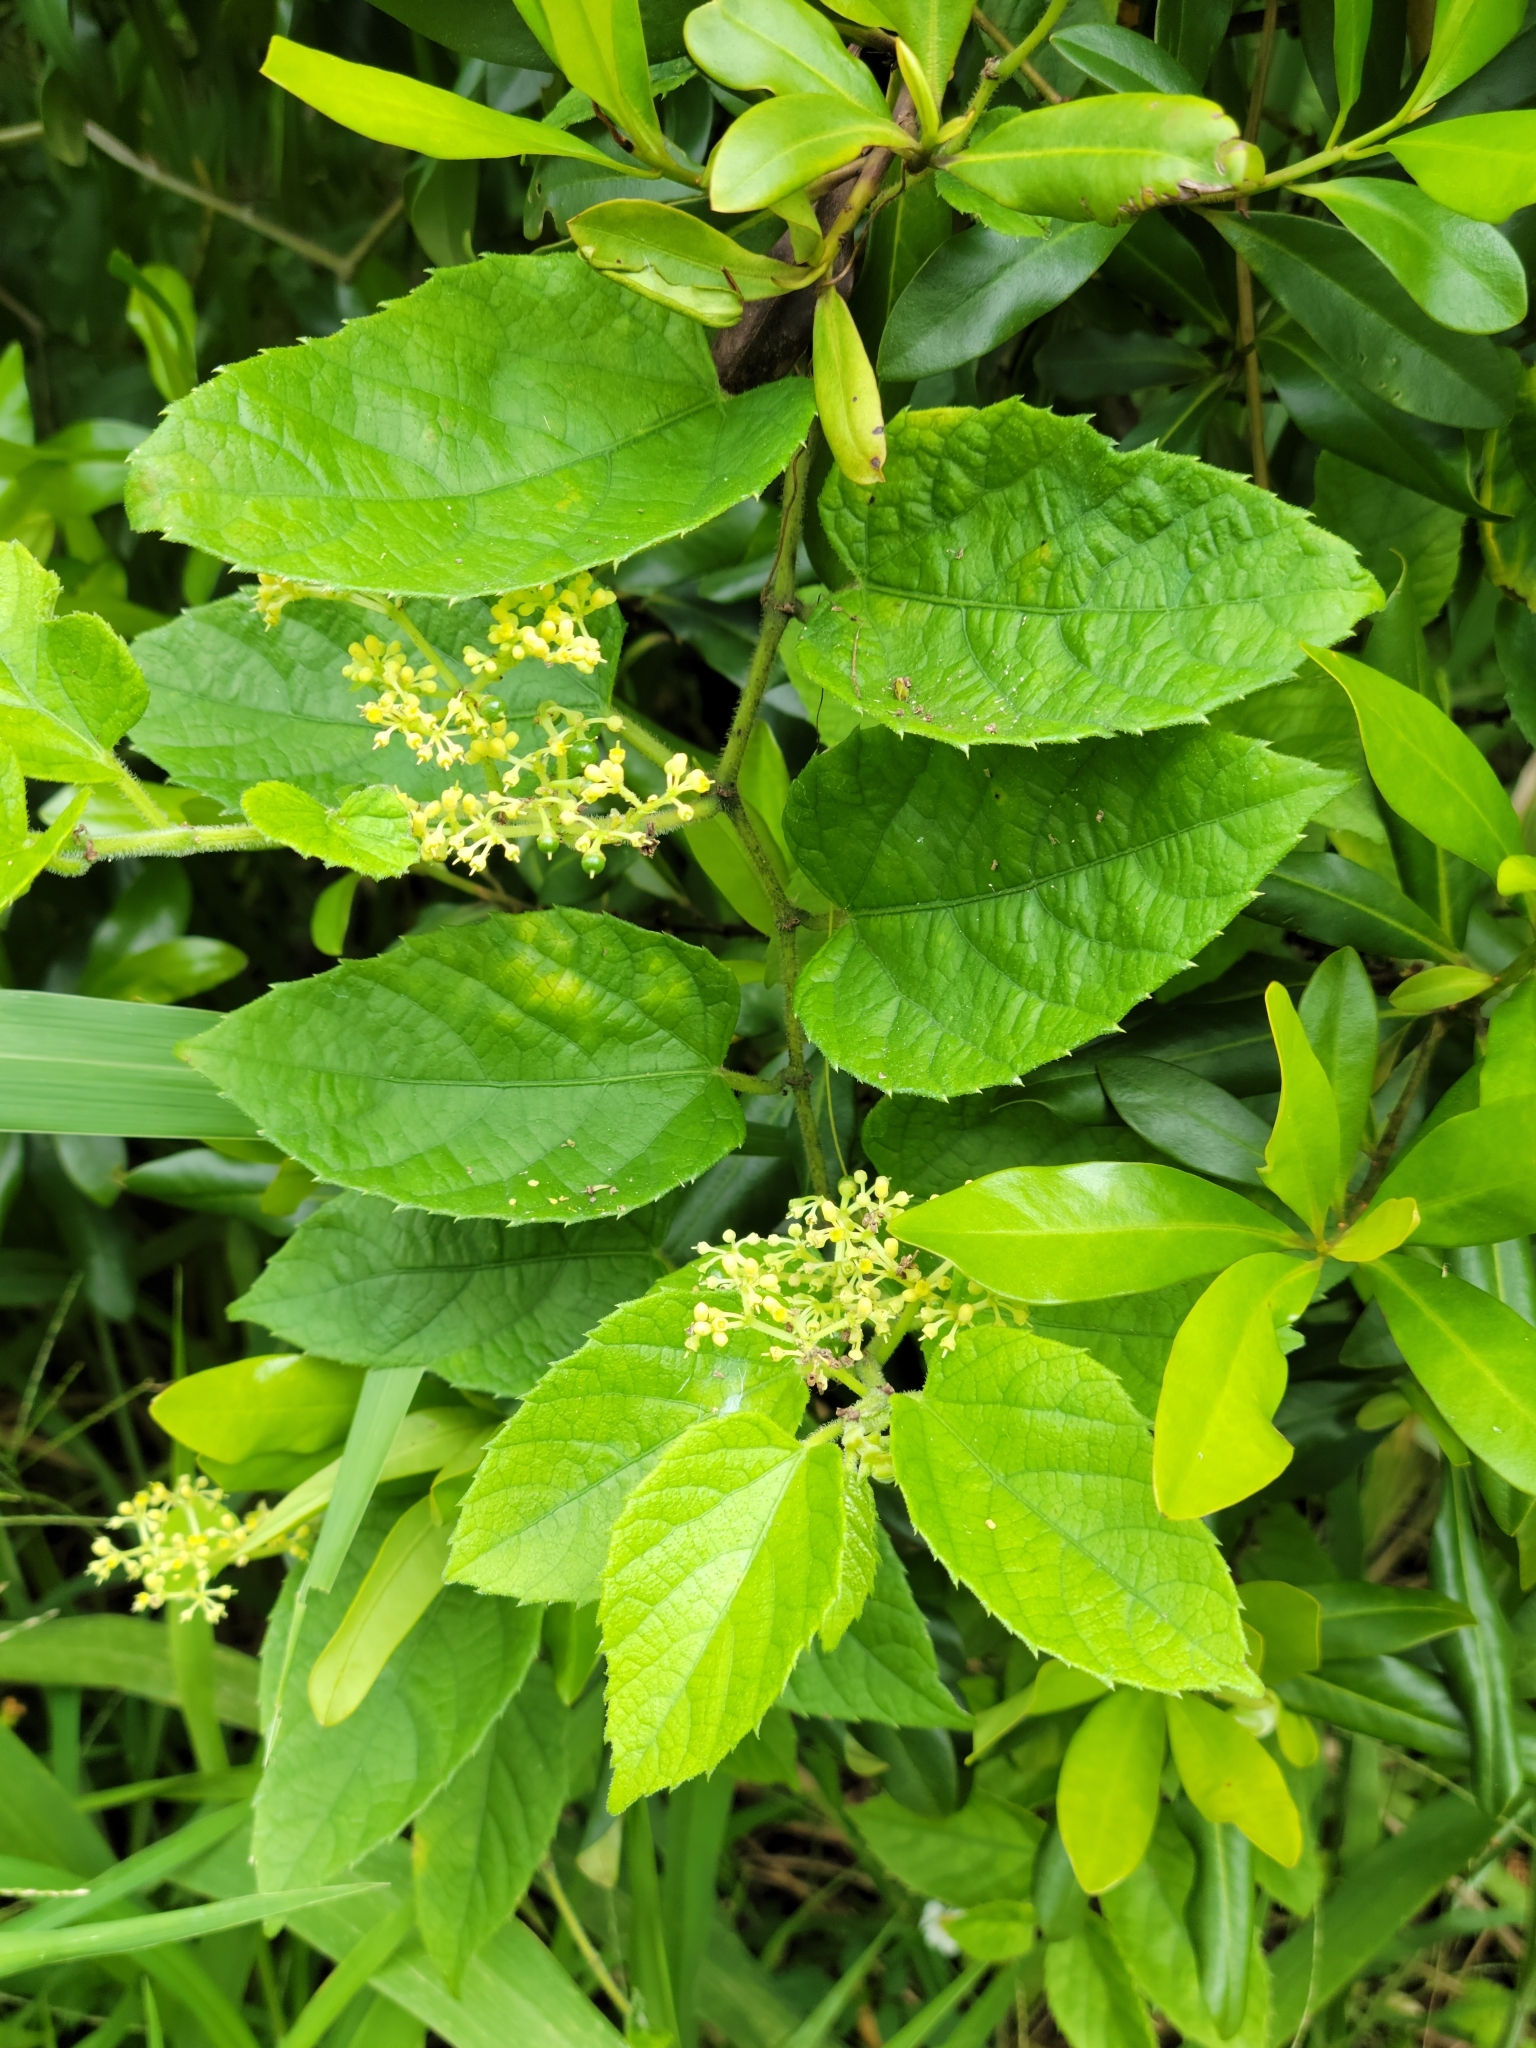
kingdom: Plantae
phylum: Tracheophyta
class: Magnoliopsida
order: Vitales
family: Vitaceae
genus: Cissus
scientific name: Cissus verticillata
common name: Princess vine
